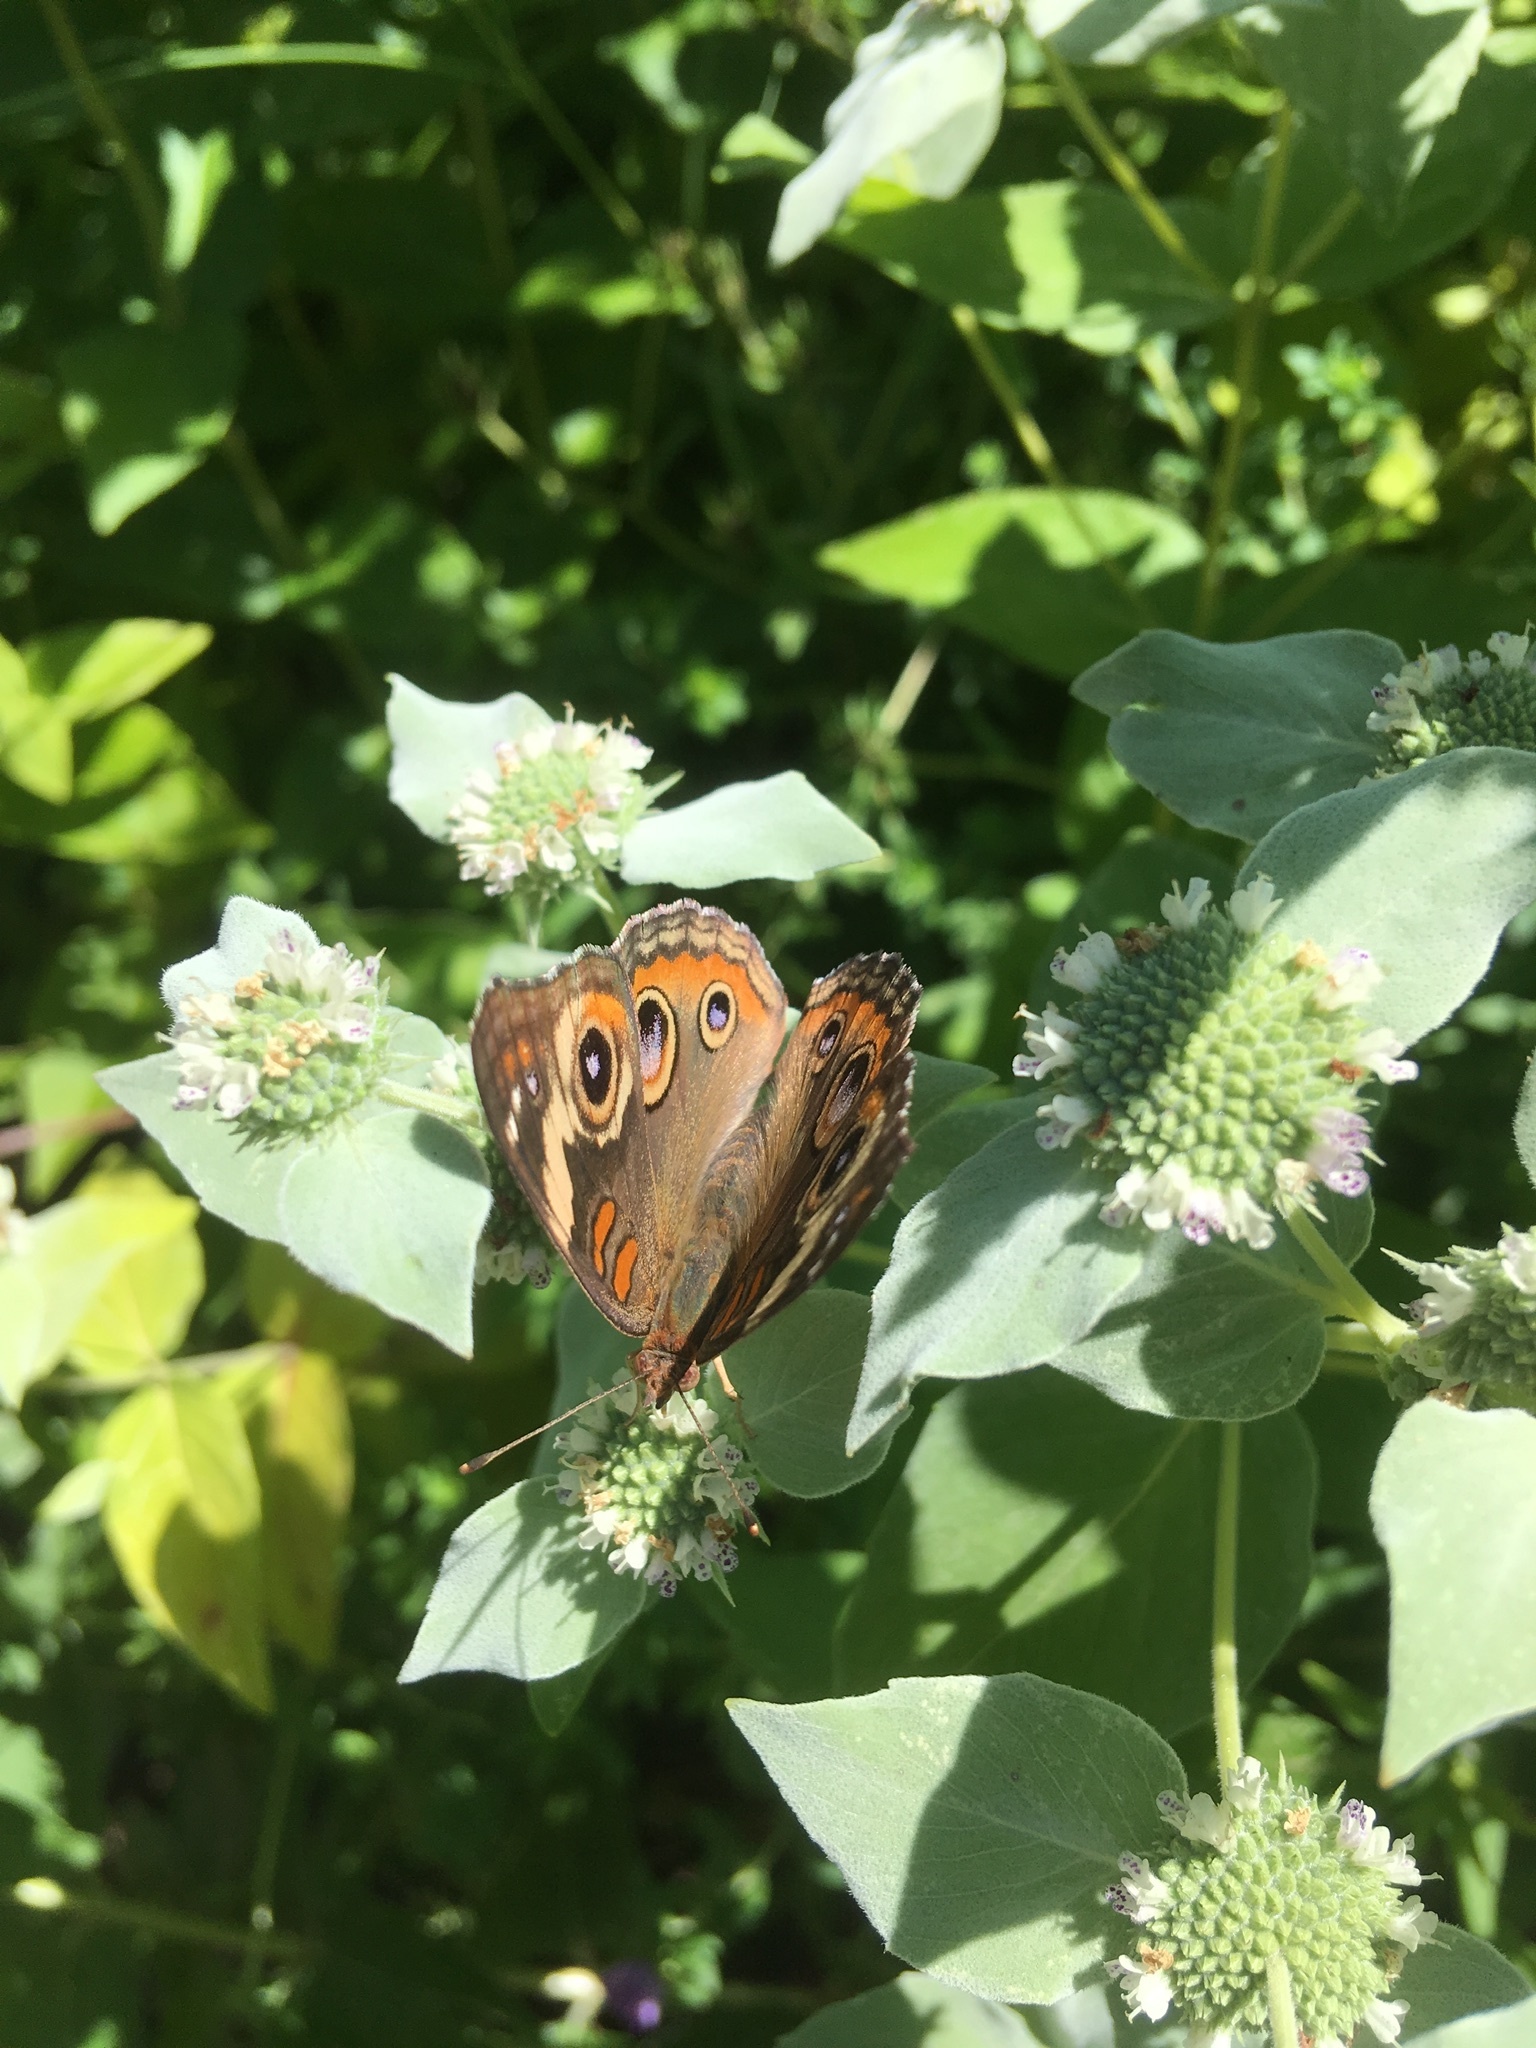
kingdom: Animalia
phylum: Arthropoda
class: Insecta
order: Lepidoptera
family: Nymphalidae
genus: Junonia
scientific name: Junonia coenia
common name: Common buckeye
